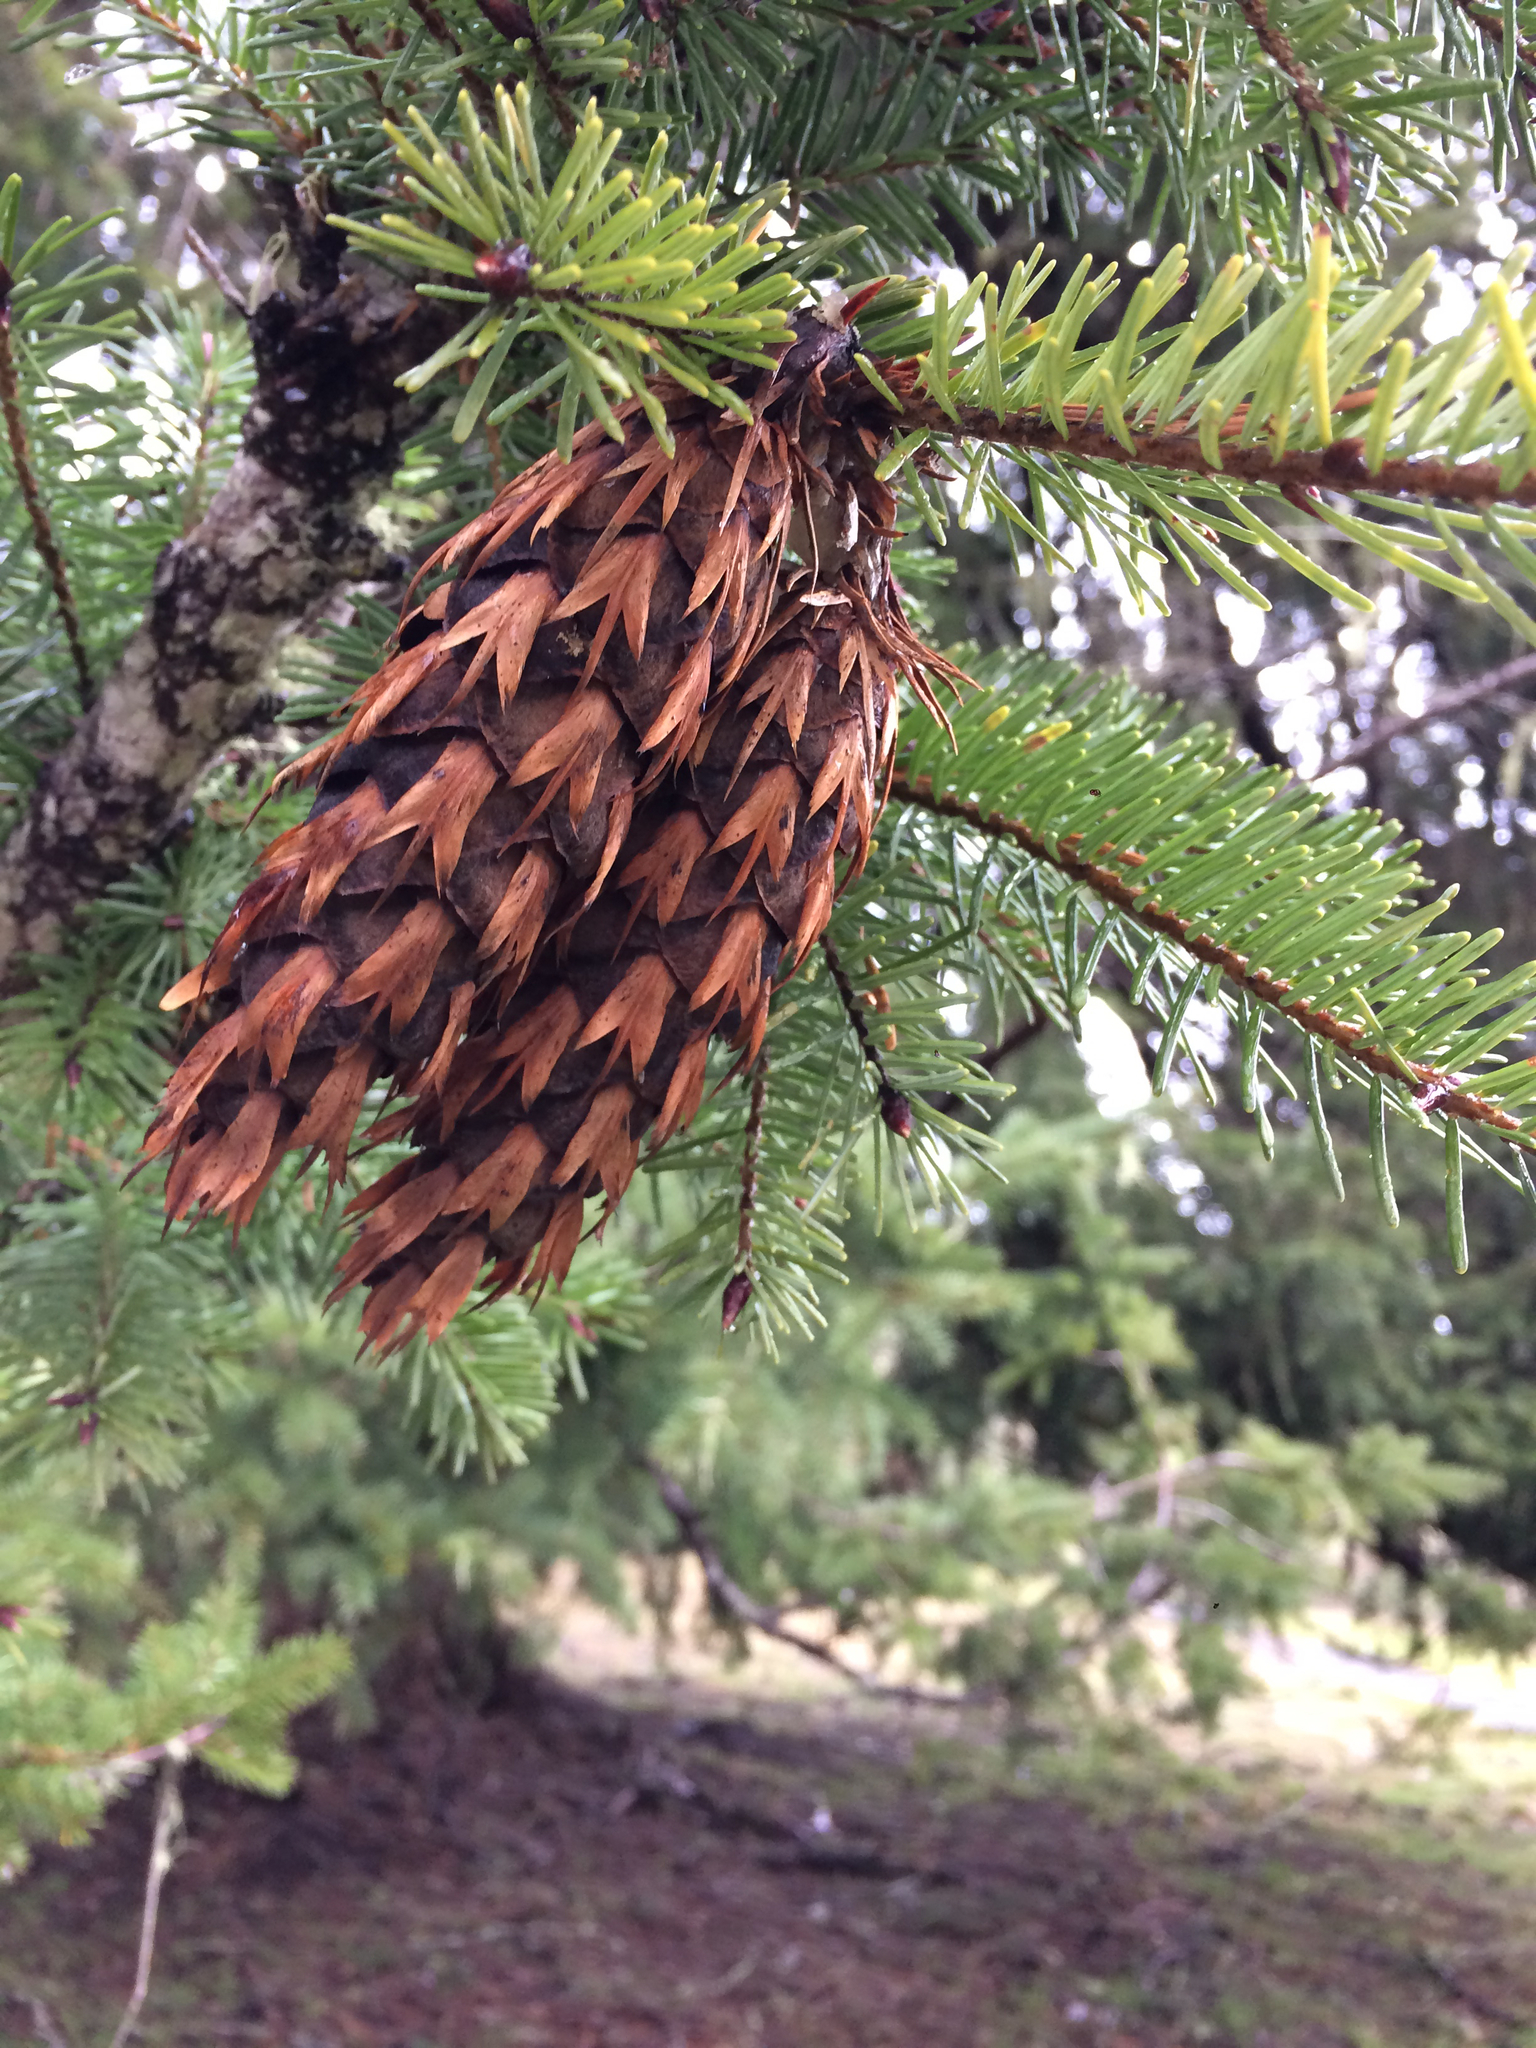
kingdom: Plantae
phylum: Tracheophyta
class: Pinopsida
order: Pinales
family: Pinaceae
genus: Pseudotsuga
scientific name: Pseudotsuga menziesii
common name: Douglas fir
